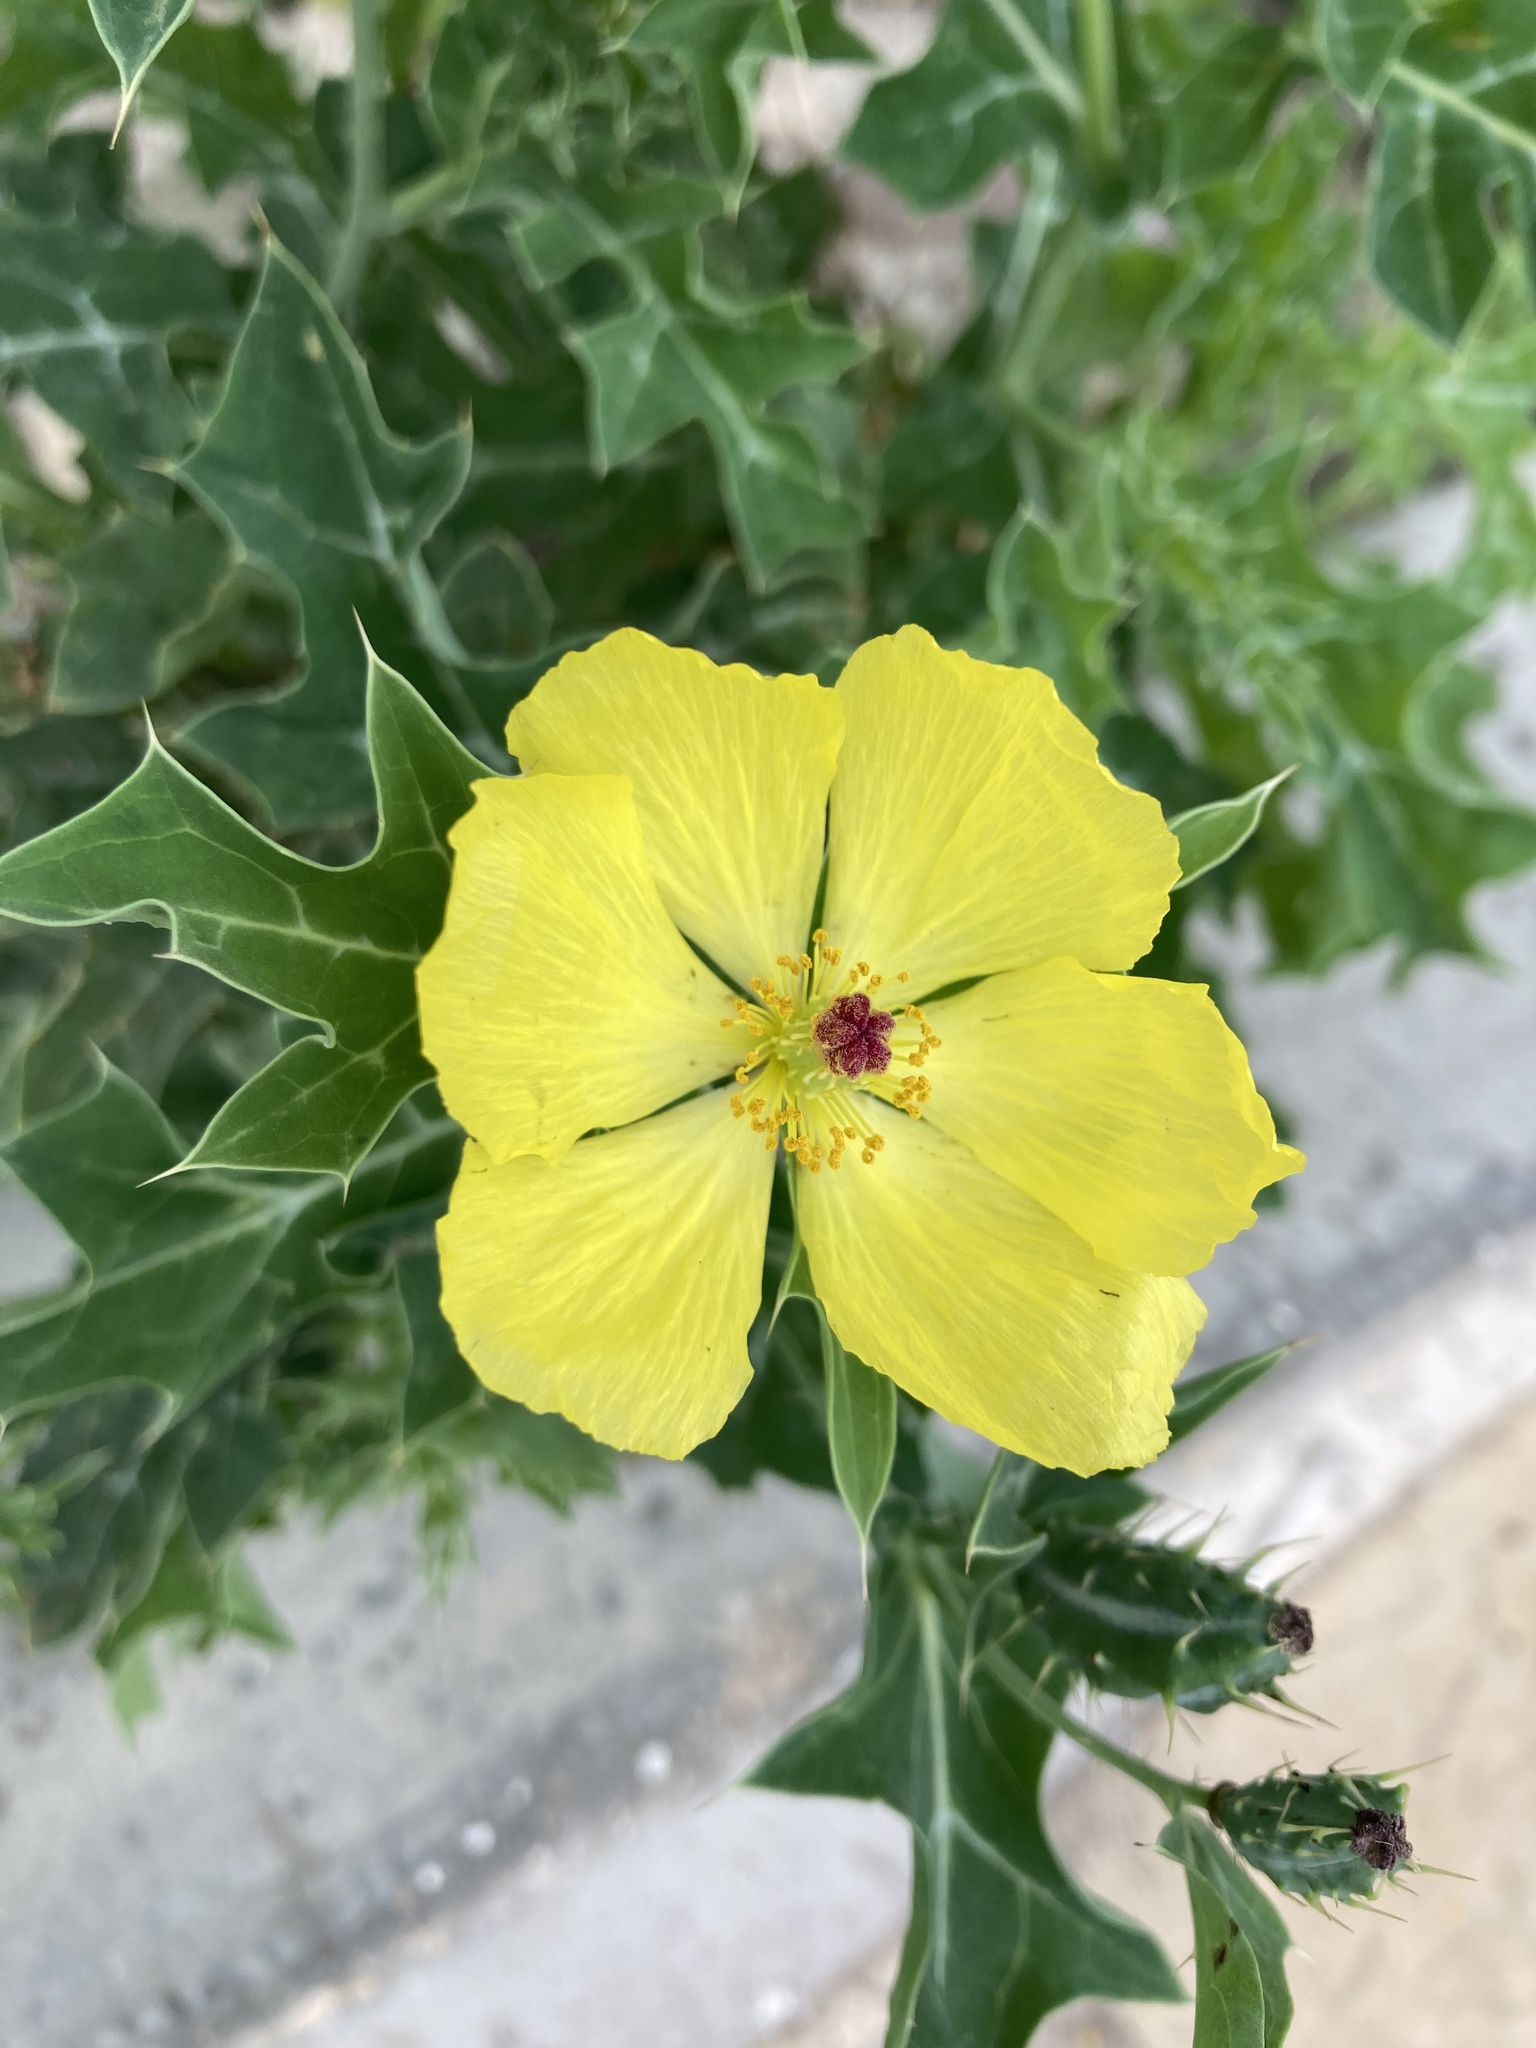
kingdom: Plantae
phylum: Tracheophyta
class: Magnoliopsida
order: Ranunculales
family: Papaveraceae
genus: Argemone
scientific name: Argemone mexicana
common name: Mexican poppy
